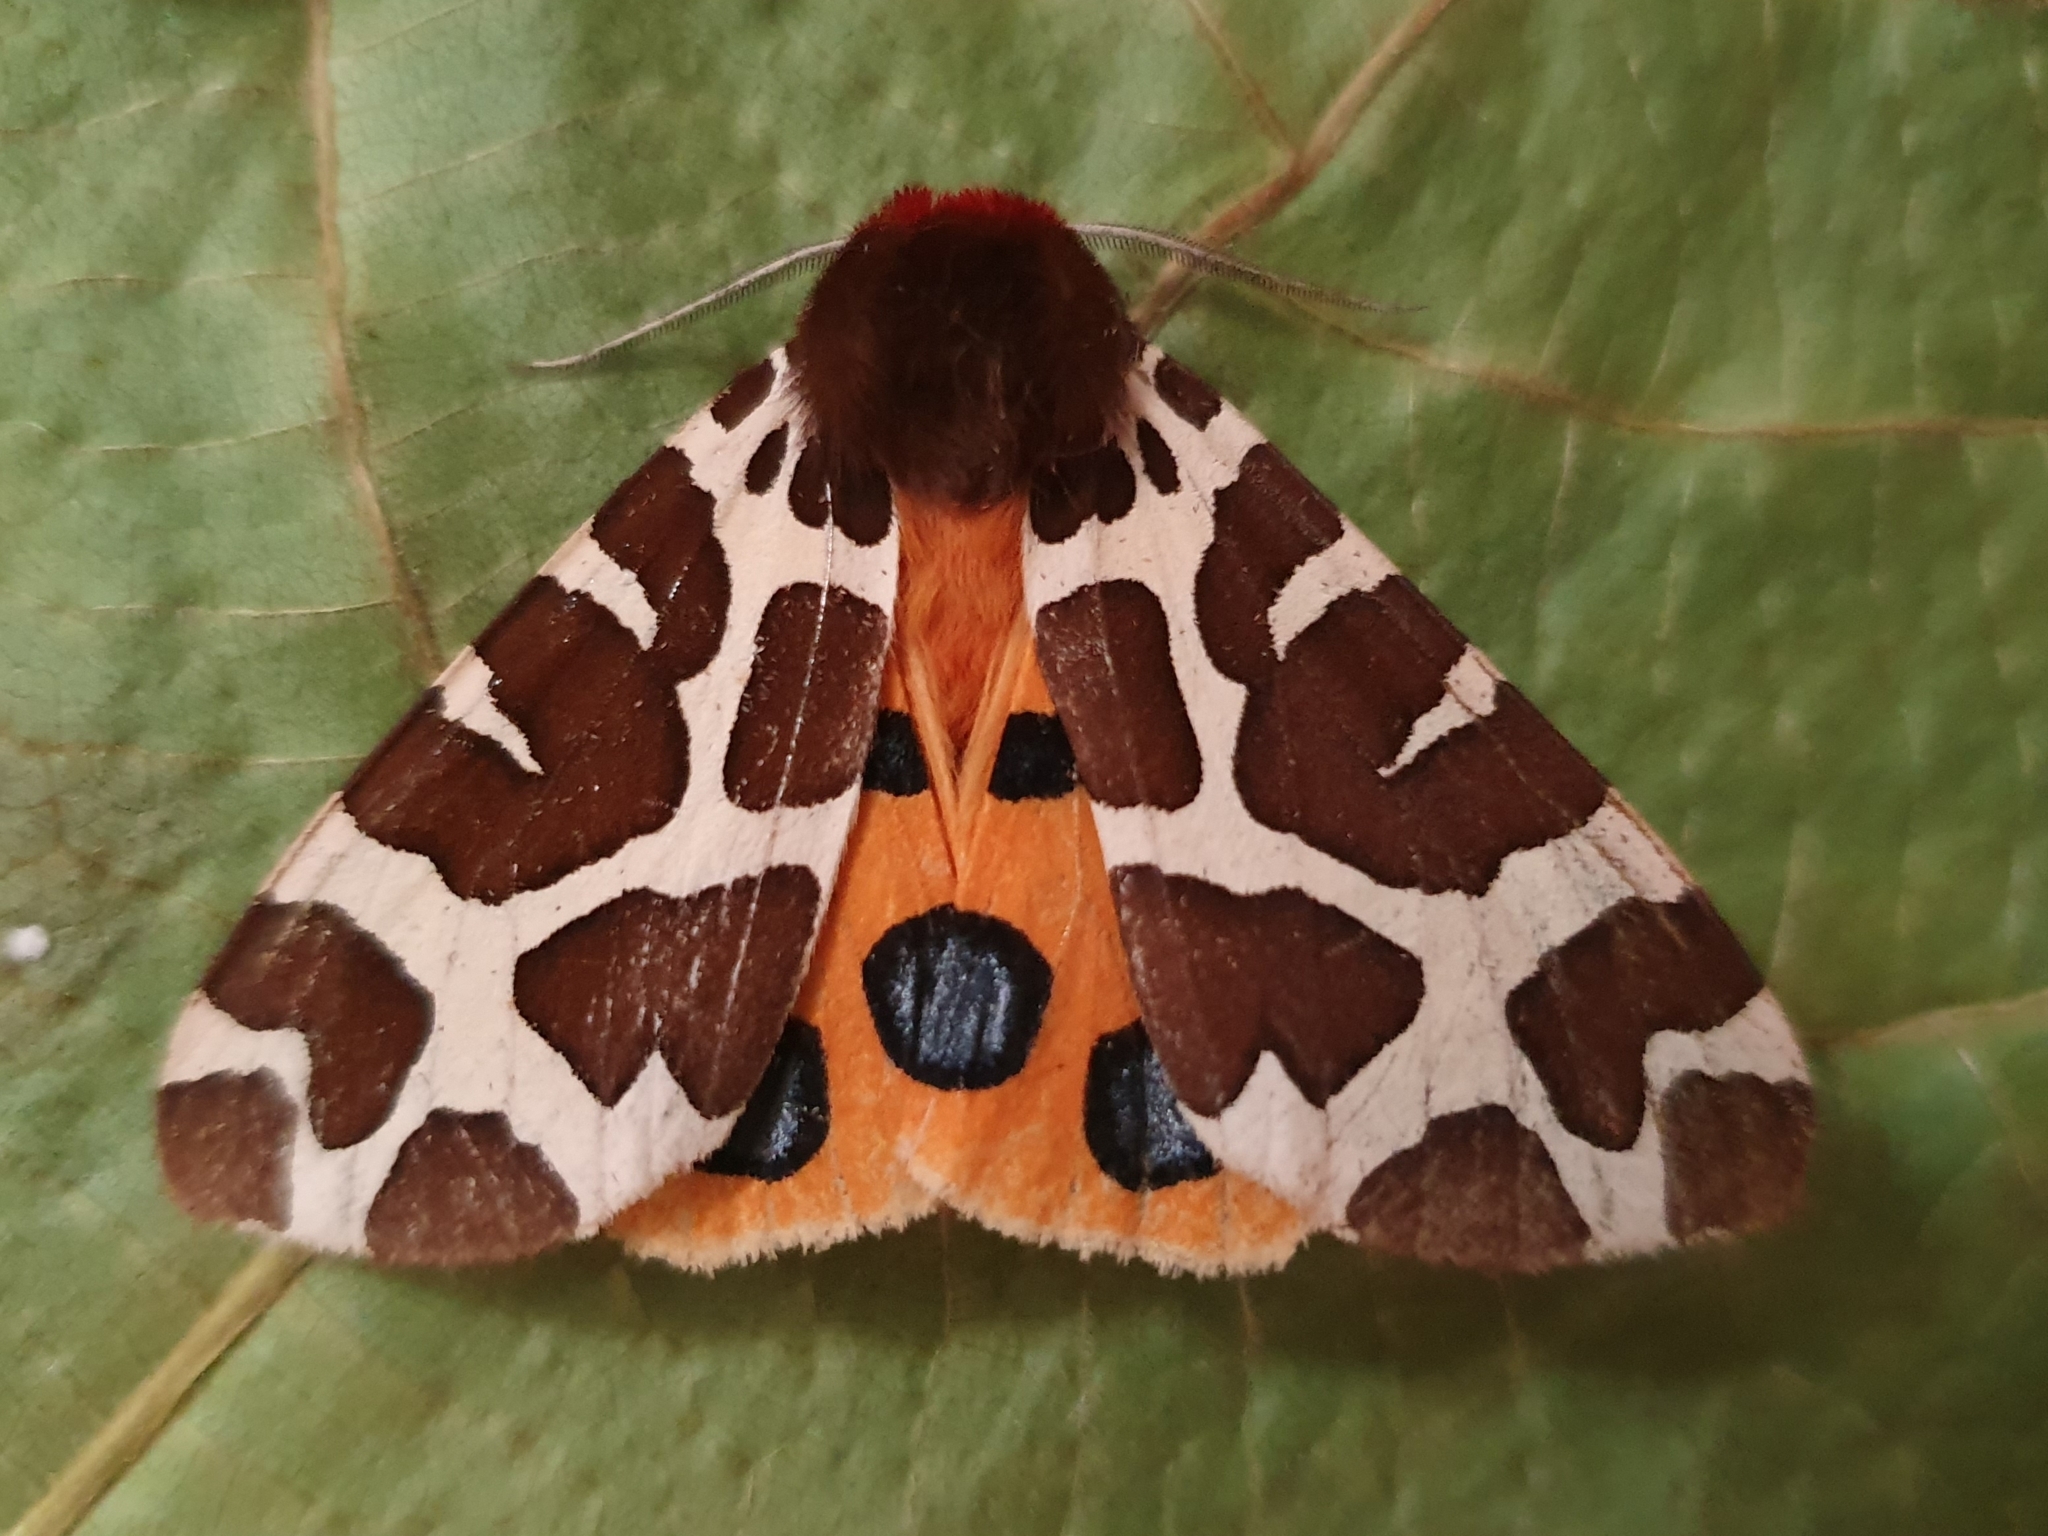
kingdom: Animalia
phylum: Arthropoda
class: Insecta
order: Lepidoptera
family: Erebidae
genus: Arctia
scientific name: Arctia caja
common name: Garden tiger
